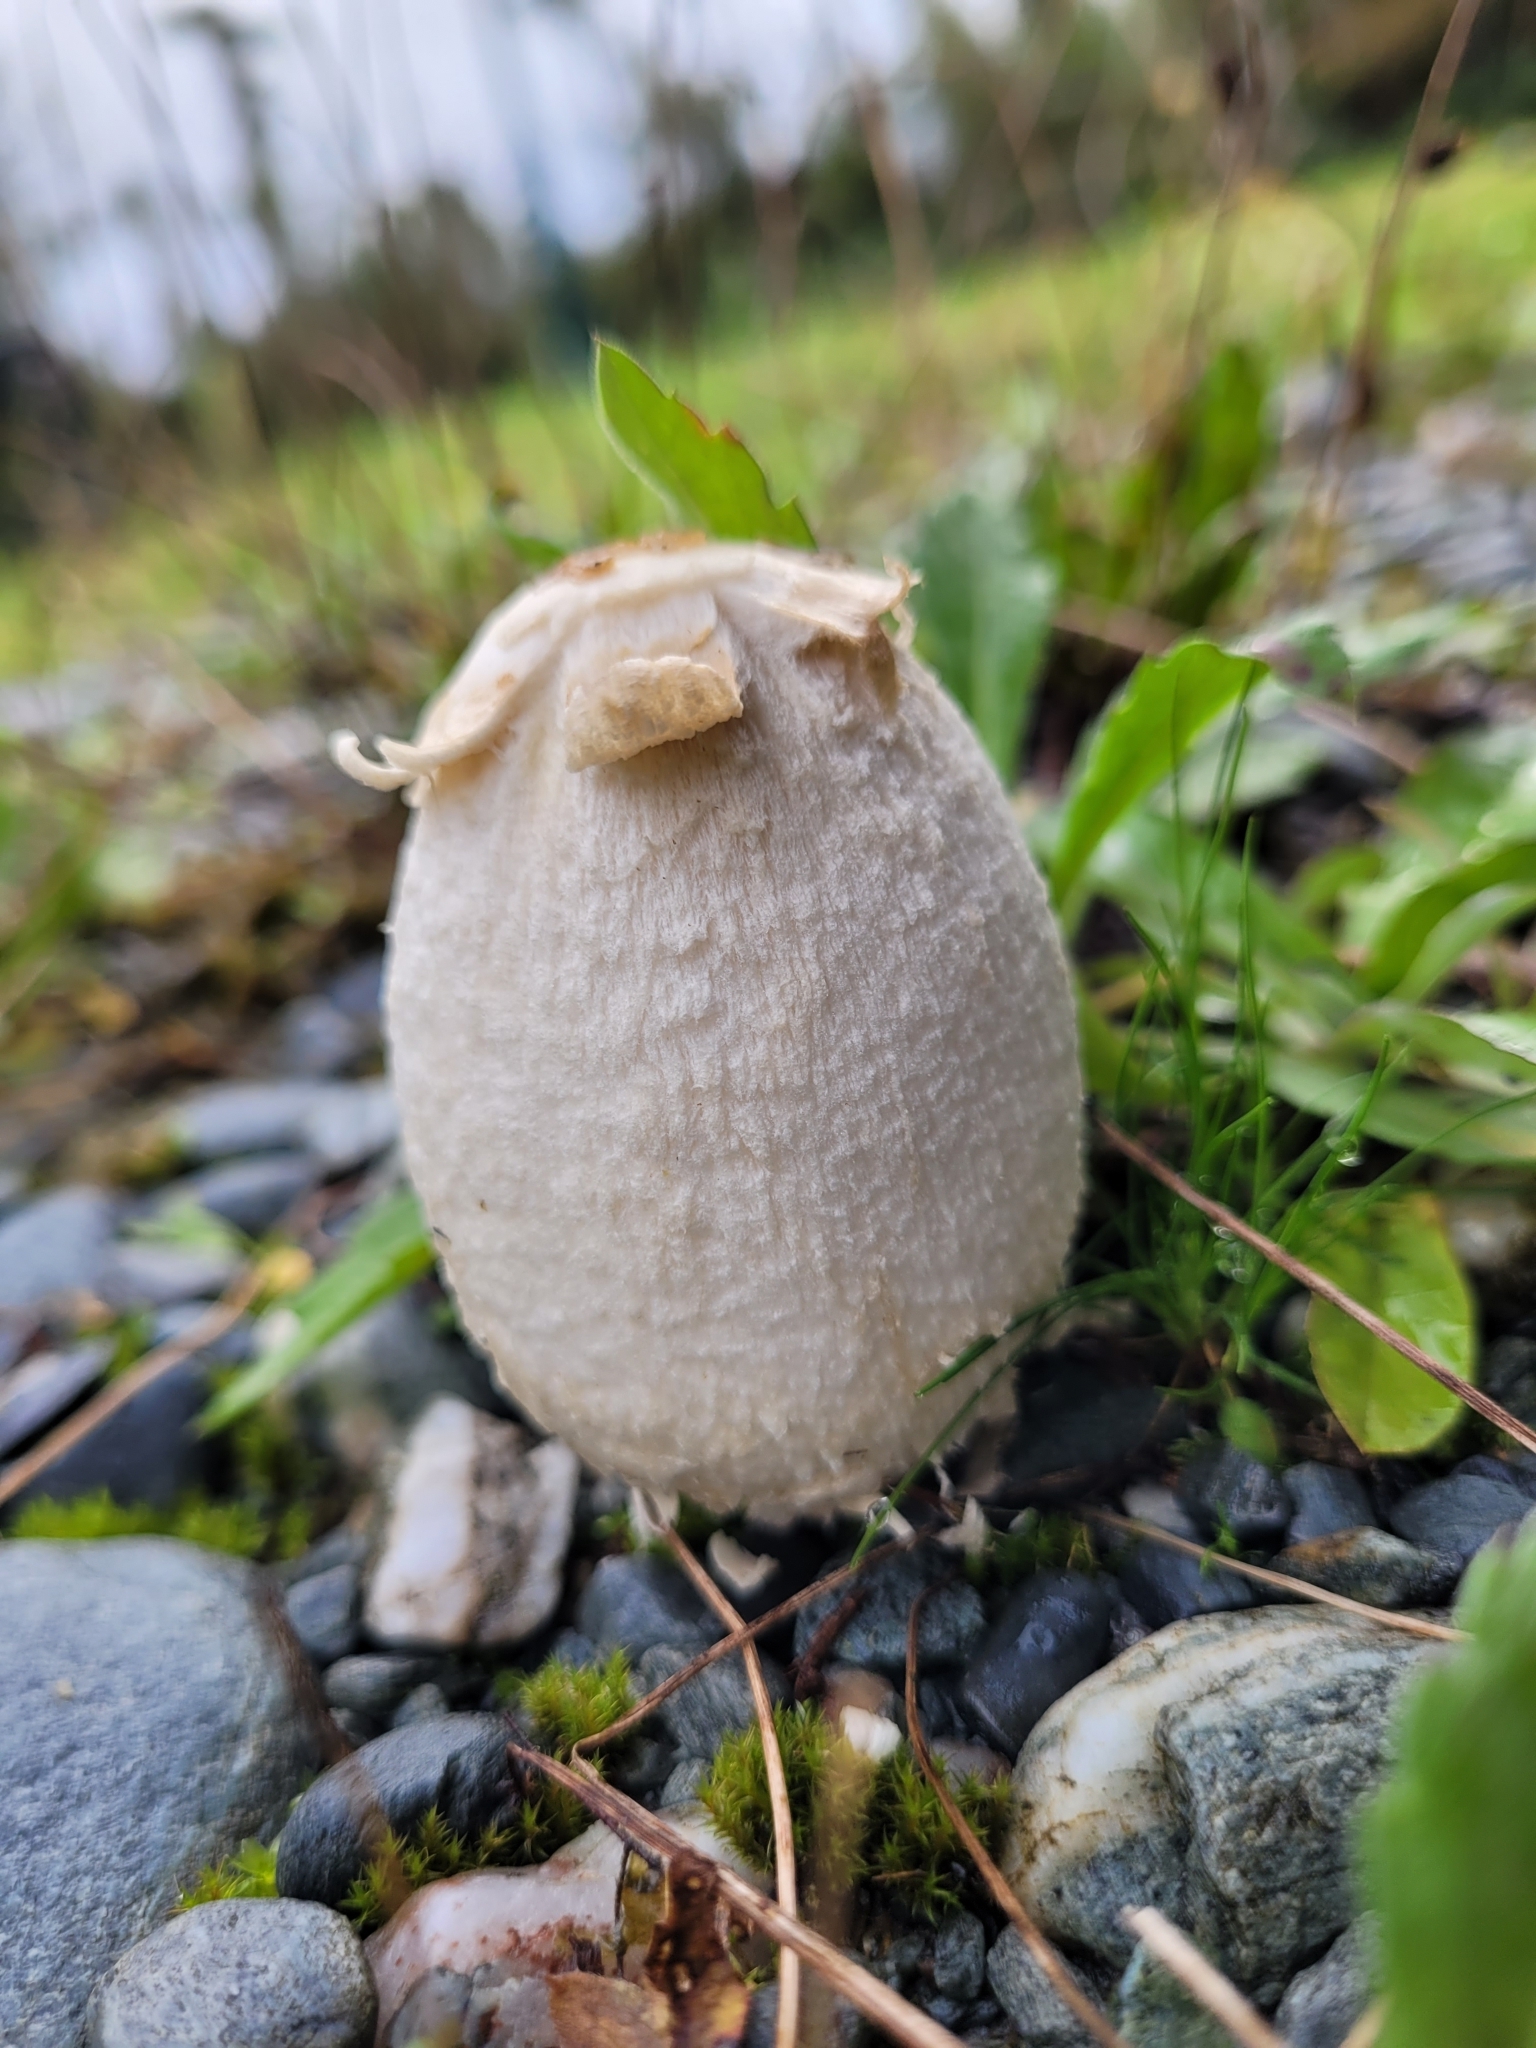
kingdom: Fungi
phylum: Basidiomycota
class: Agaricomycetes
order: Agaricales
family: Agaricaceae
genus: Coprinus
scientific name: Coprinus comatus
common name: Lawyer's wig
